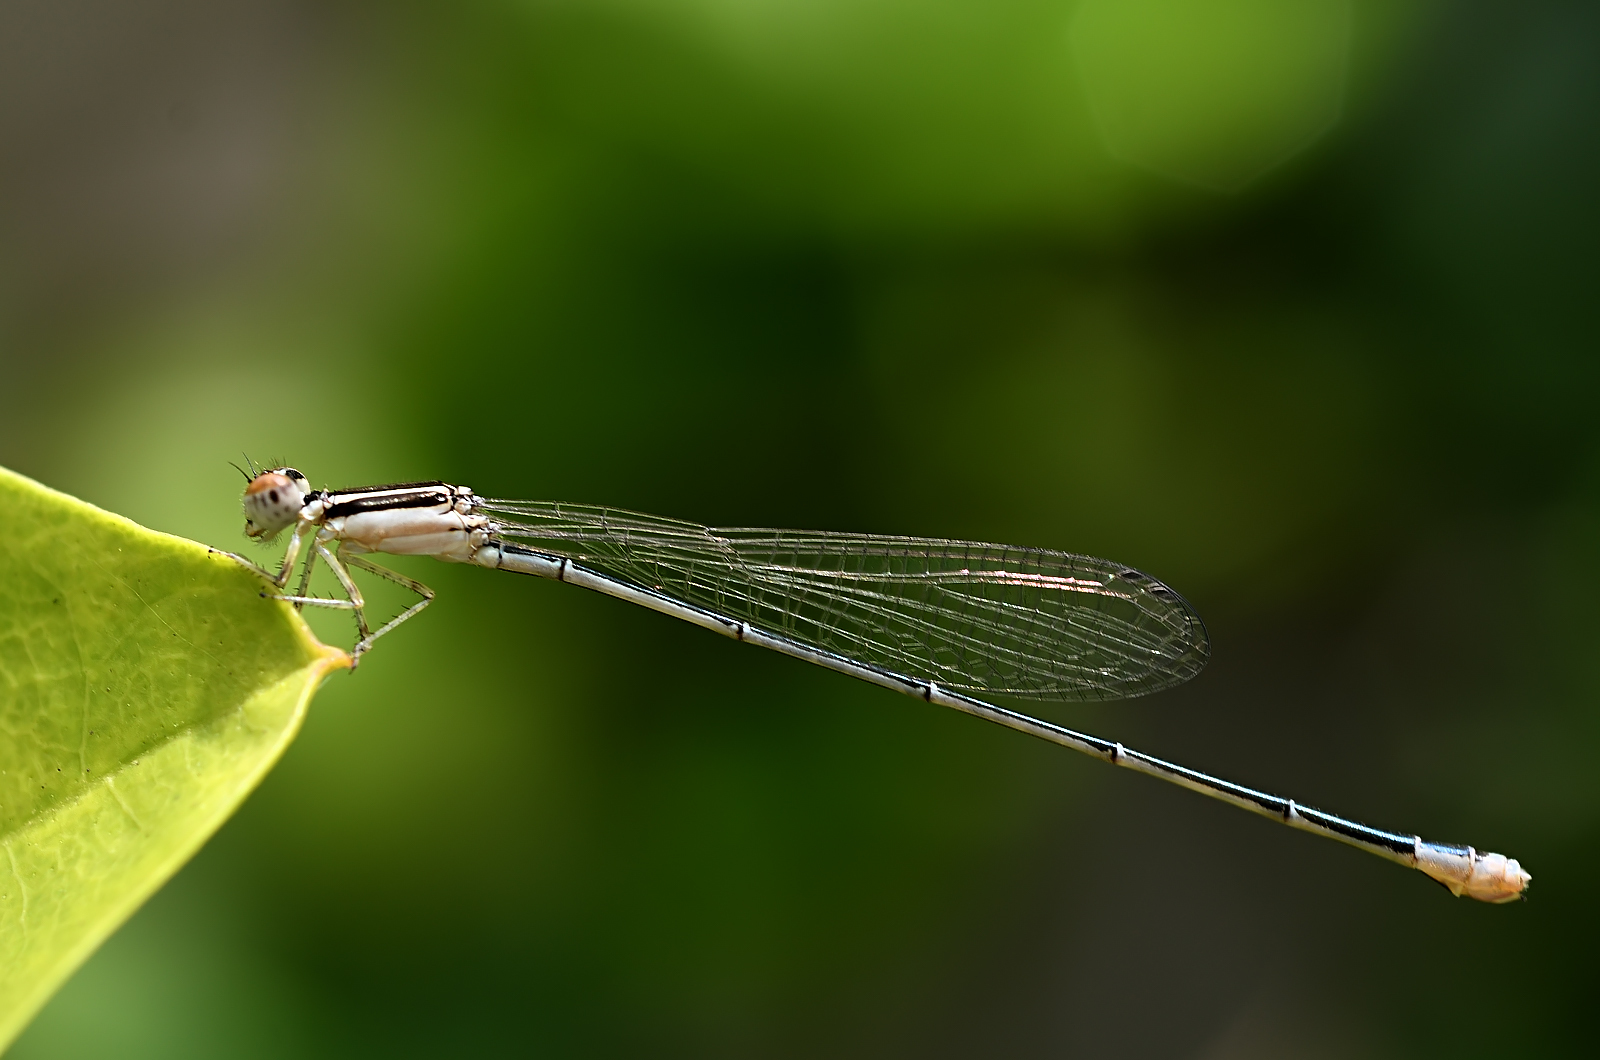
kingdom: Animalia
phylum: Arthropoda
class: Insecta
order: Odonata
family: Coenagrionidae
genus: Aciagrion
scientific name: Aciagrion occidentale
